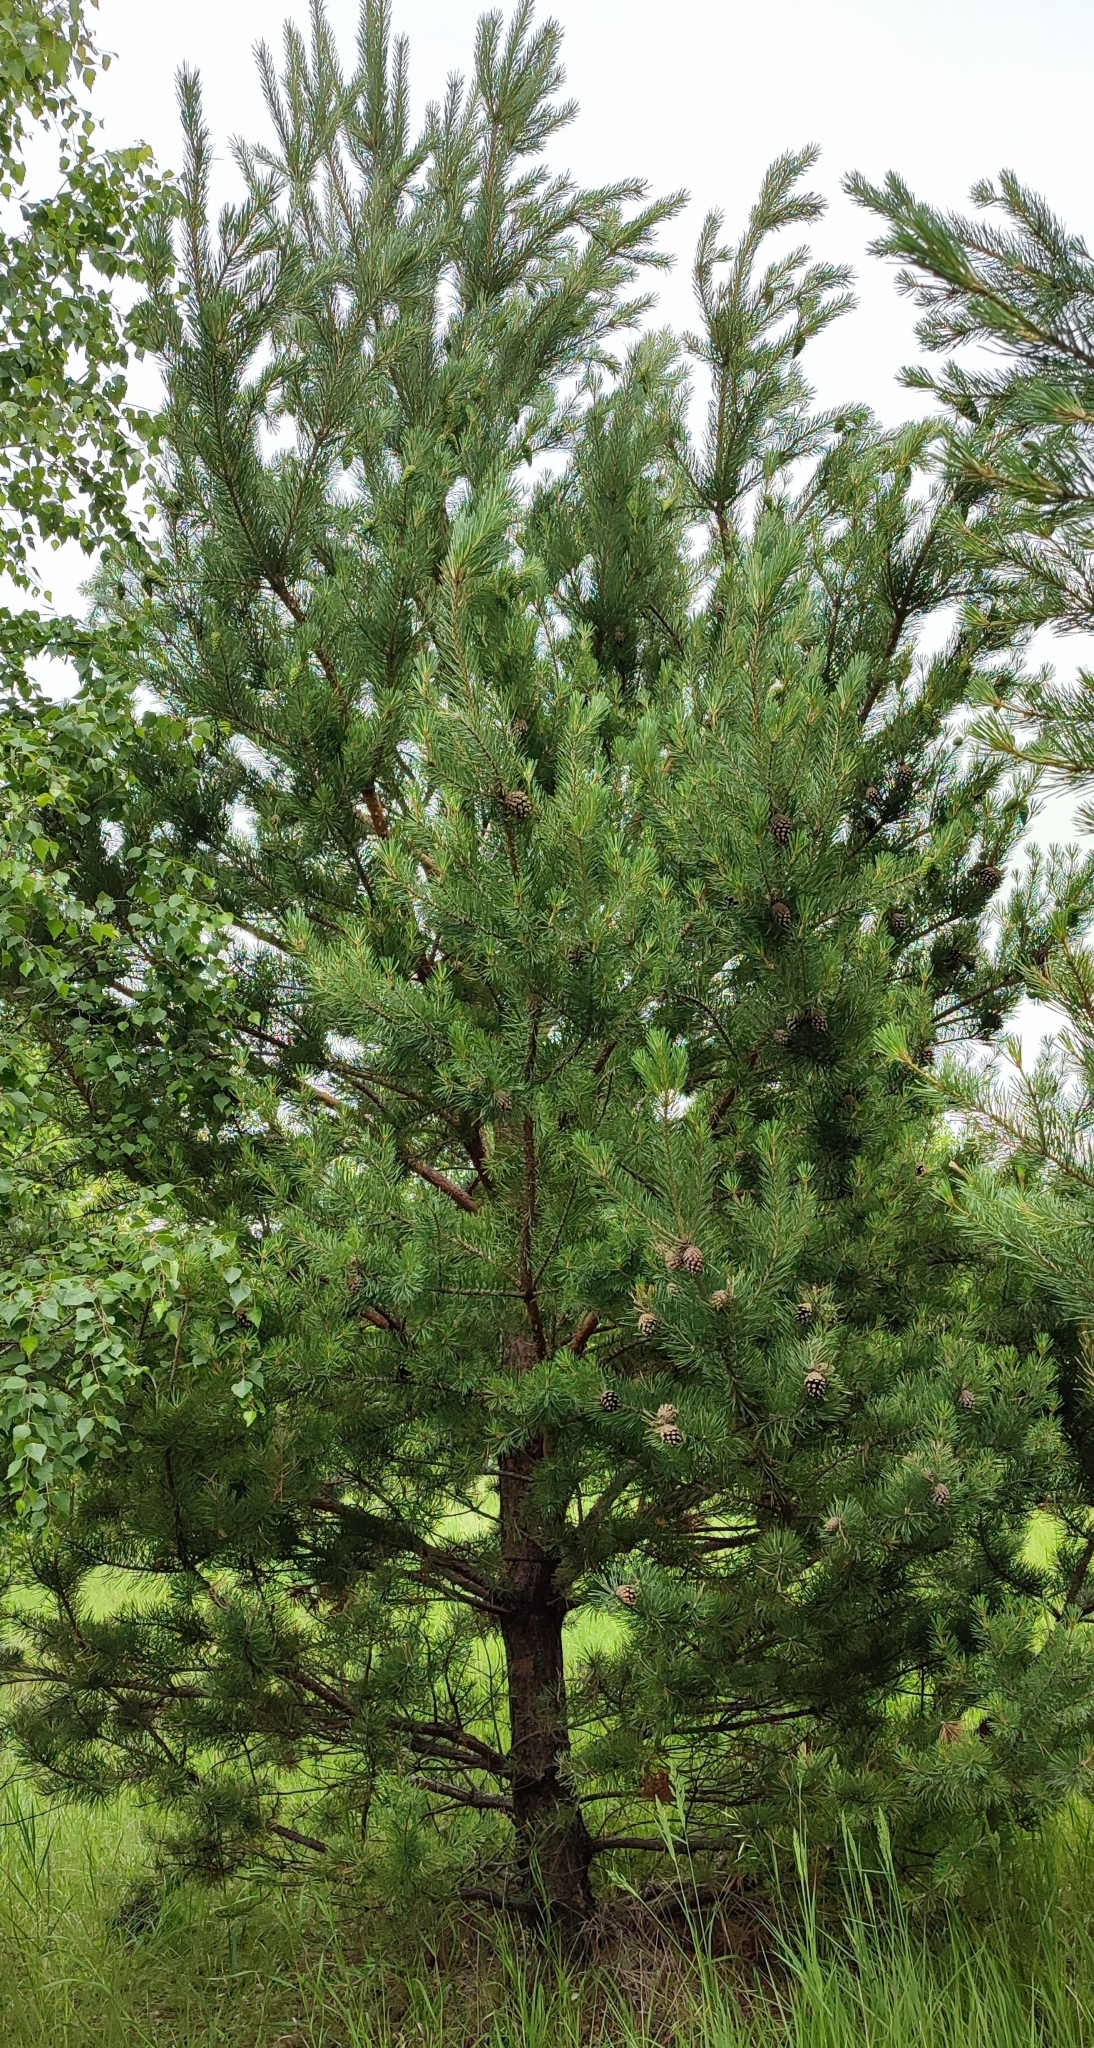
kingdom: Plantae
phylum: Tracheophyta
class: Pinopsida
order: Pinales
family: Pinaceae
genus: Pinus
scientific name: Pinus sylvestris
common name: Scots pine
